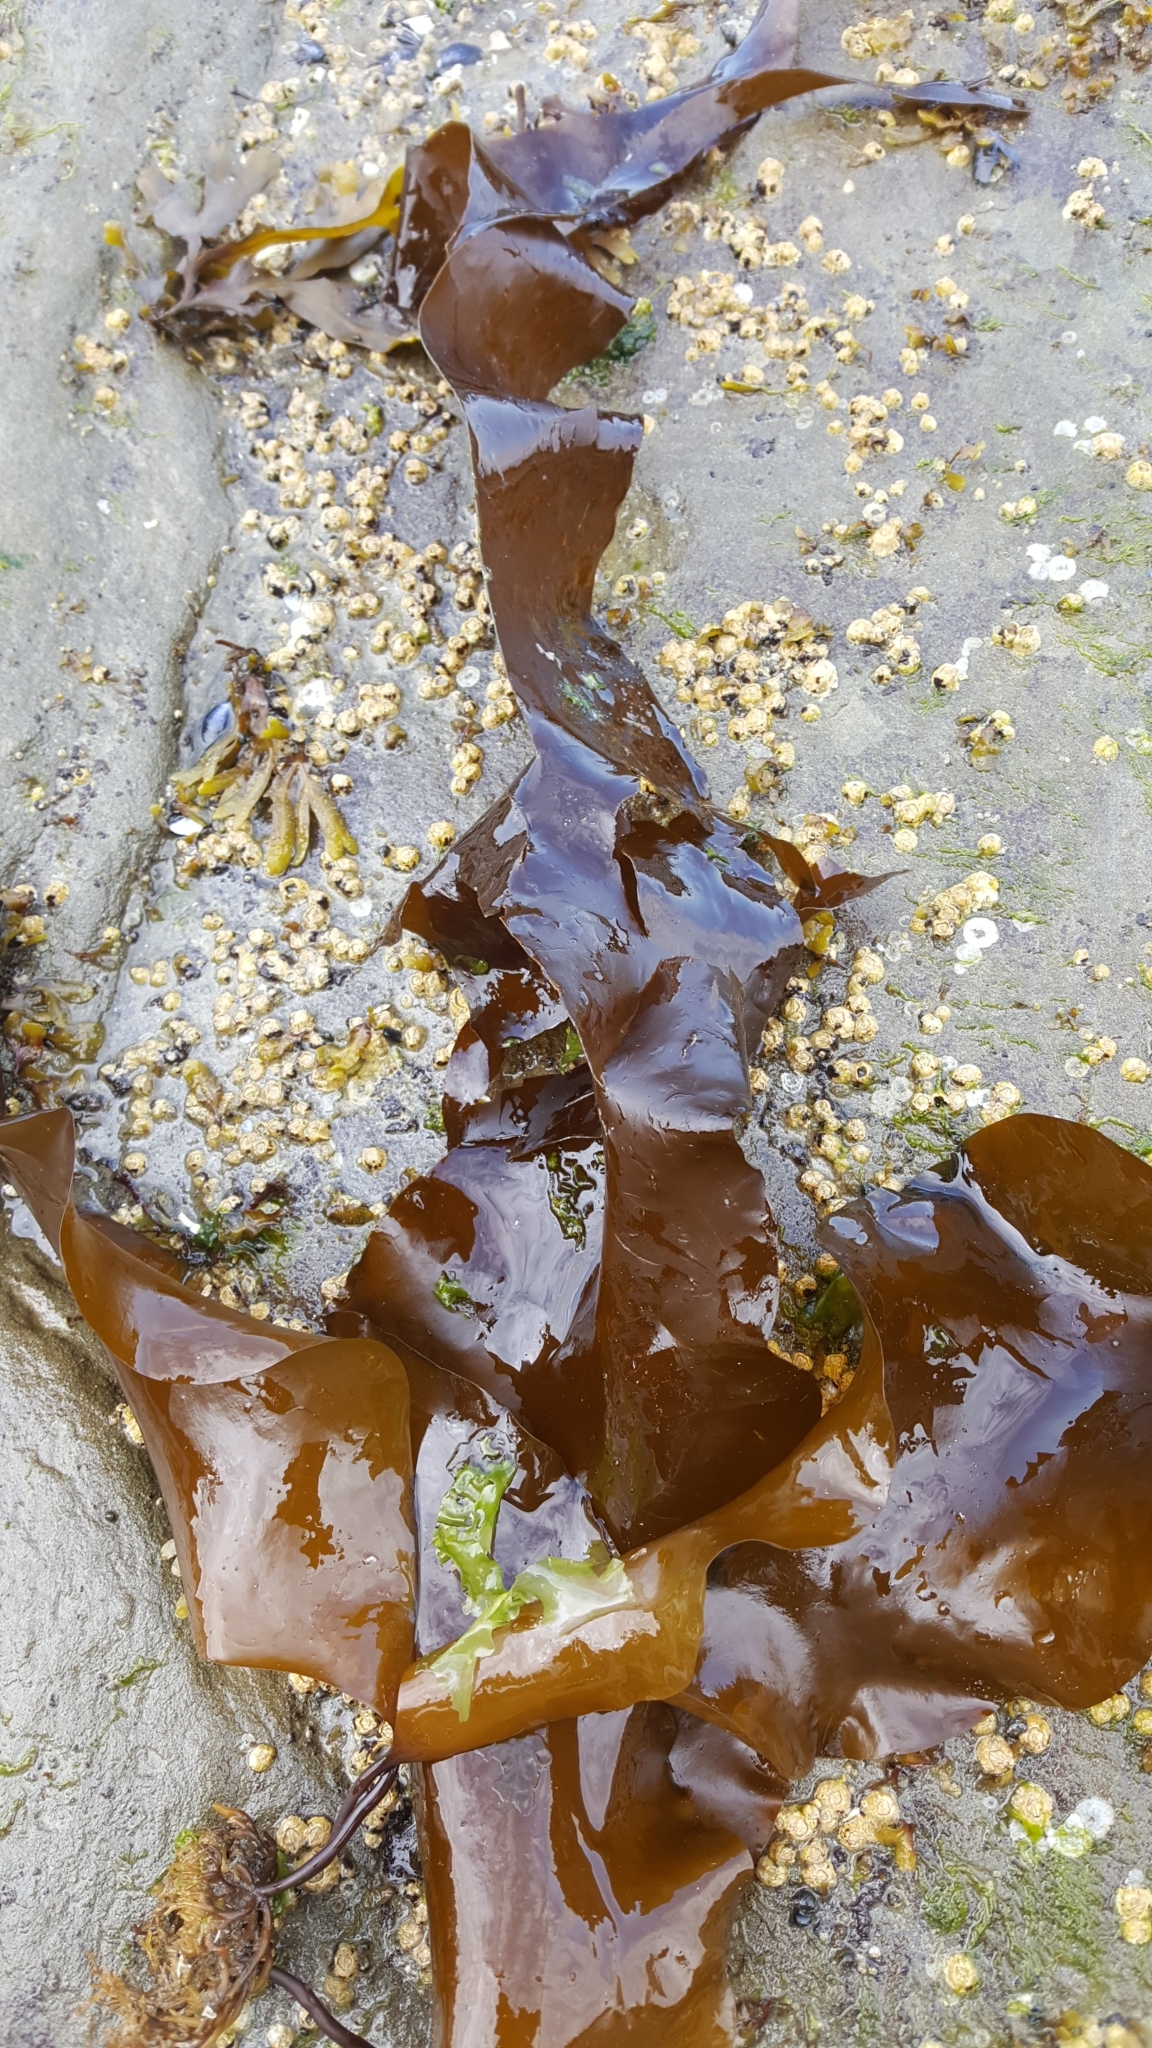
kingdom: Chromista
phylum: Ochrophyta
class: Phaeophyceae
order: Laminariales
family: Laminariaceae
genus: Saccharina
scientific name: Saccharina latissima
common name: Poor man's weather glass
